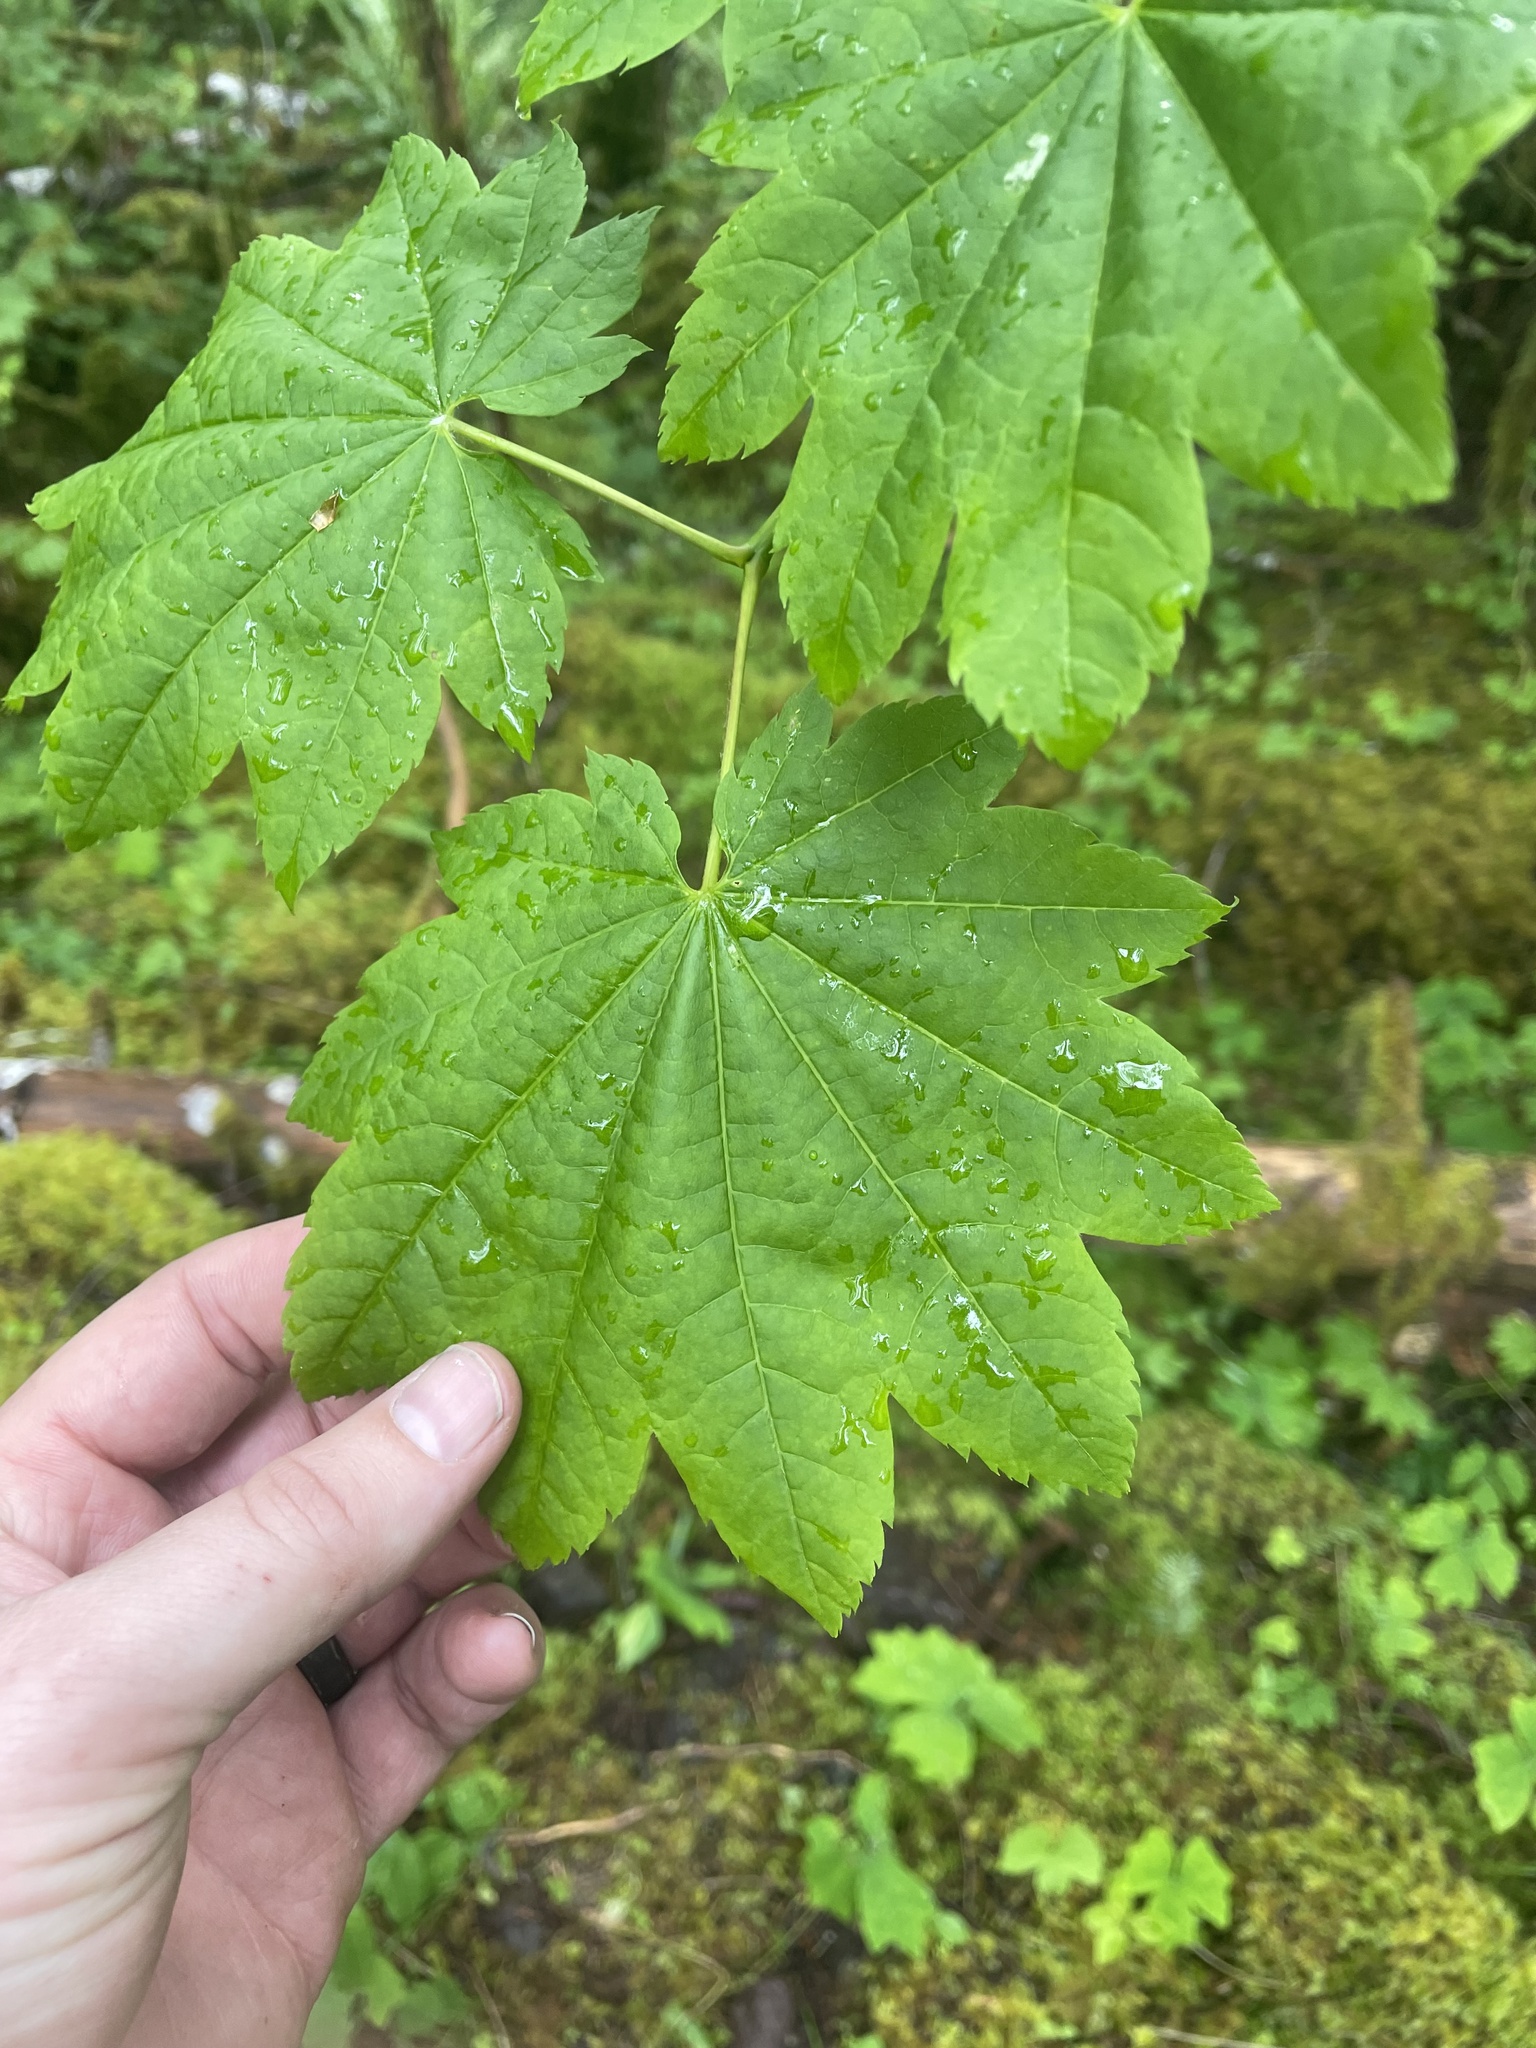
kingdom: Plantae
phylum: Tracheophyta
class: Magnoliopsida
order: Sapindales
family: Sapindaceae
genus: Acer
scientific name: Acer circinatum
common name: Vine maple
